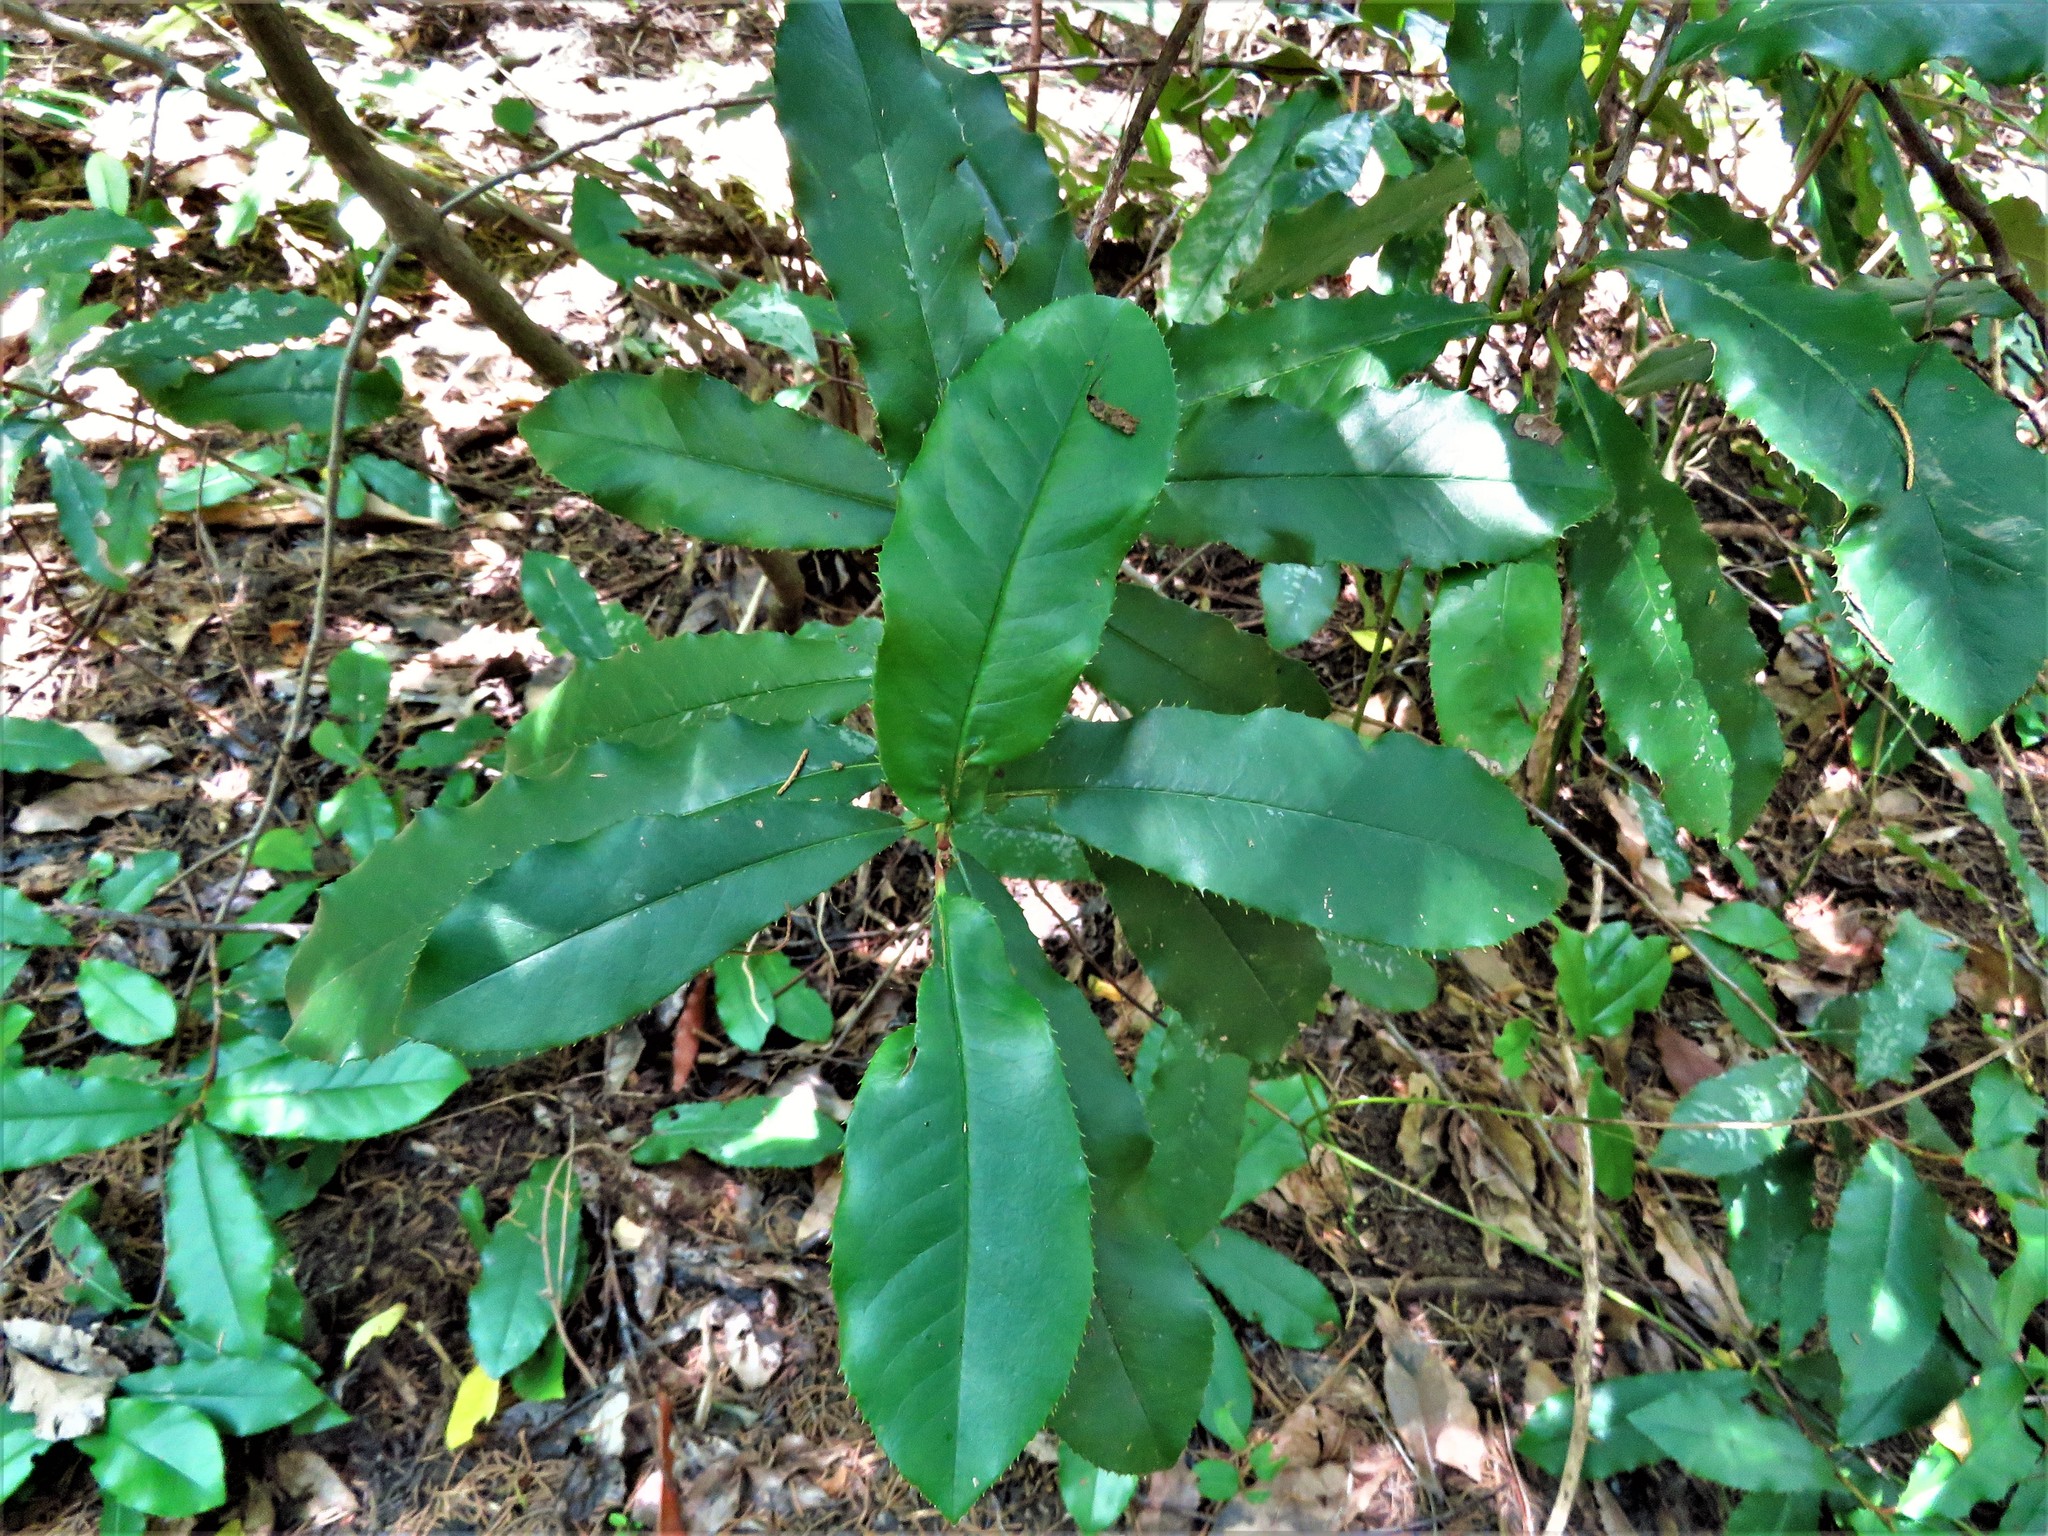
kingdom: Plantae
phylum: Tracheophyta
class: Magnoliopsida
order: Rosales
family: Rosaceae
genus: Photinia
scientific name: Photinia serratifolia
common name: Taiwanese photinia
